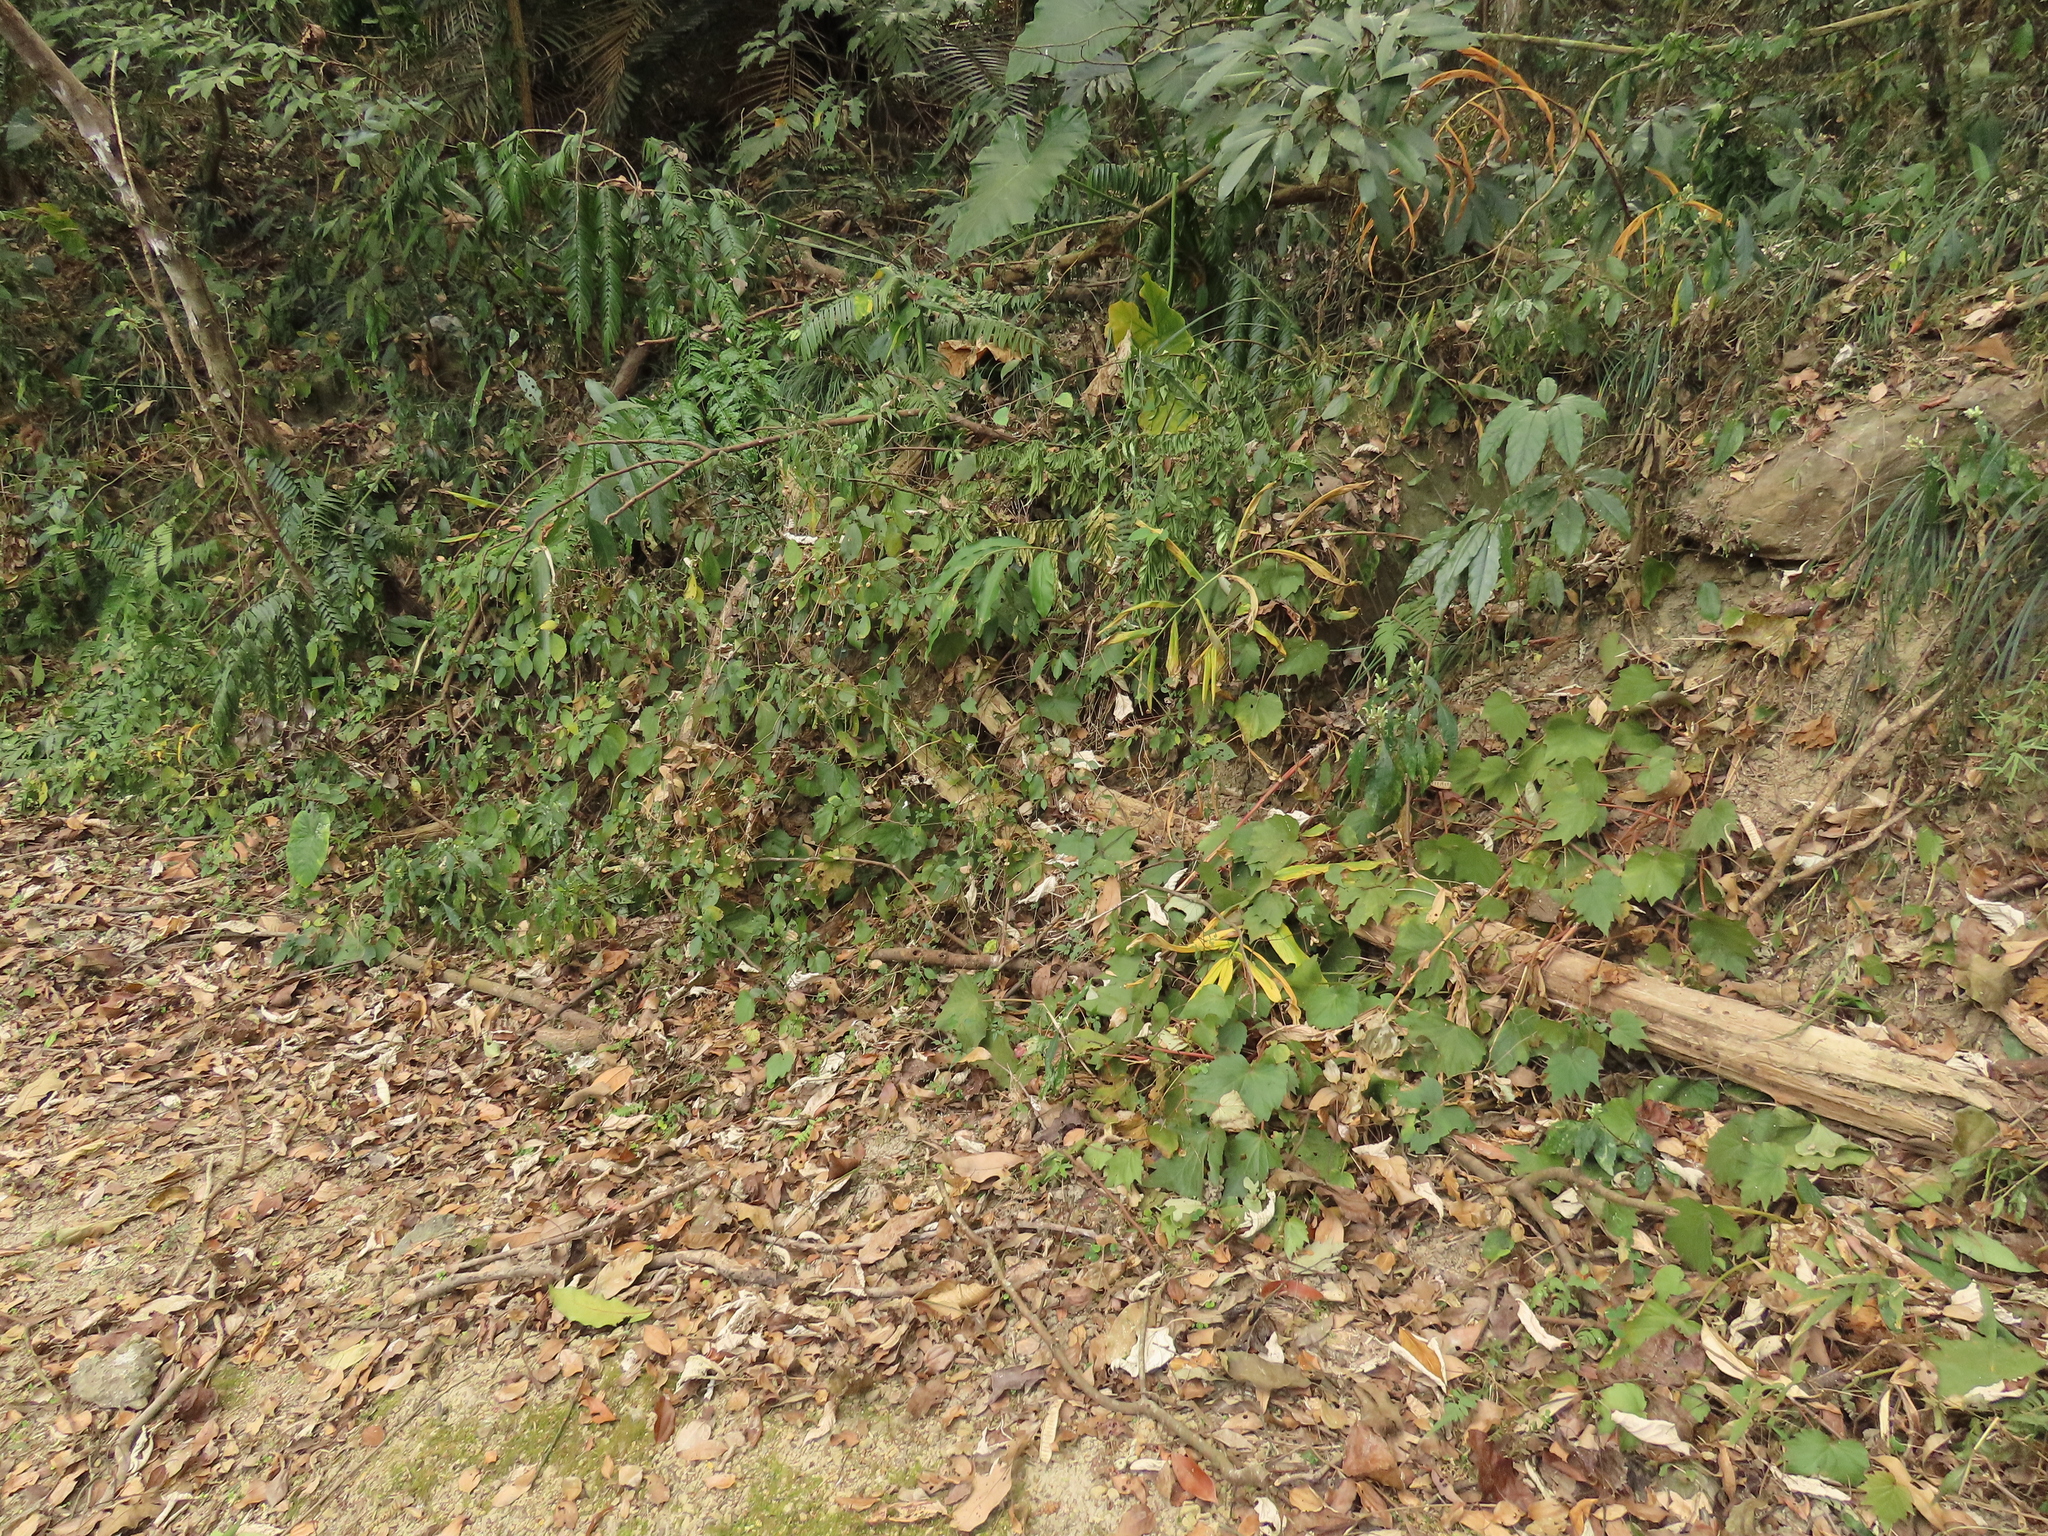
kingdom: Plantae
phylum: Tracheophyta
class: Magnoliopsida
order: Cucurbitales
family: Begoniaceae
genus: Begonia
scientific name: Begonia palmata
